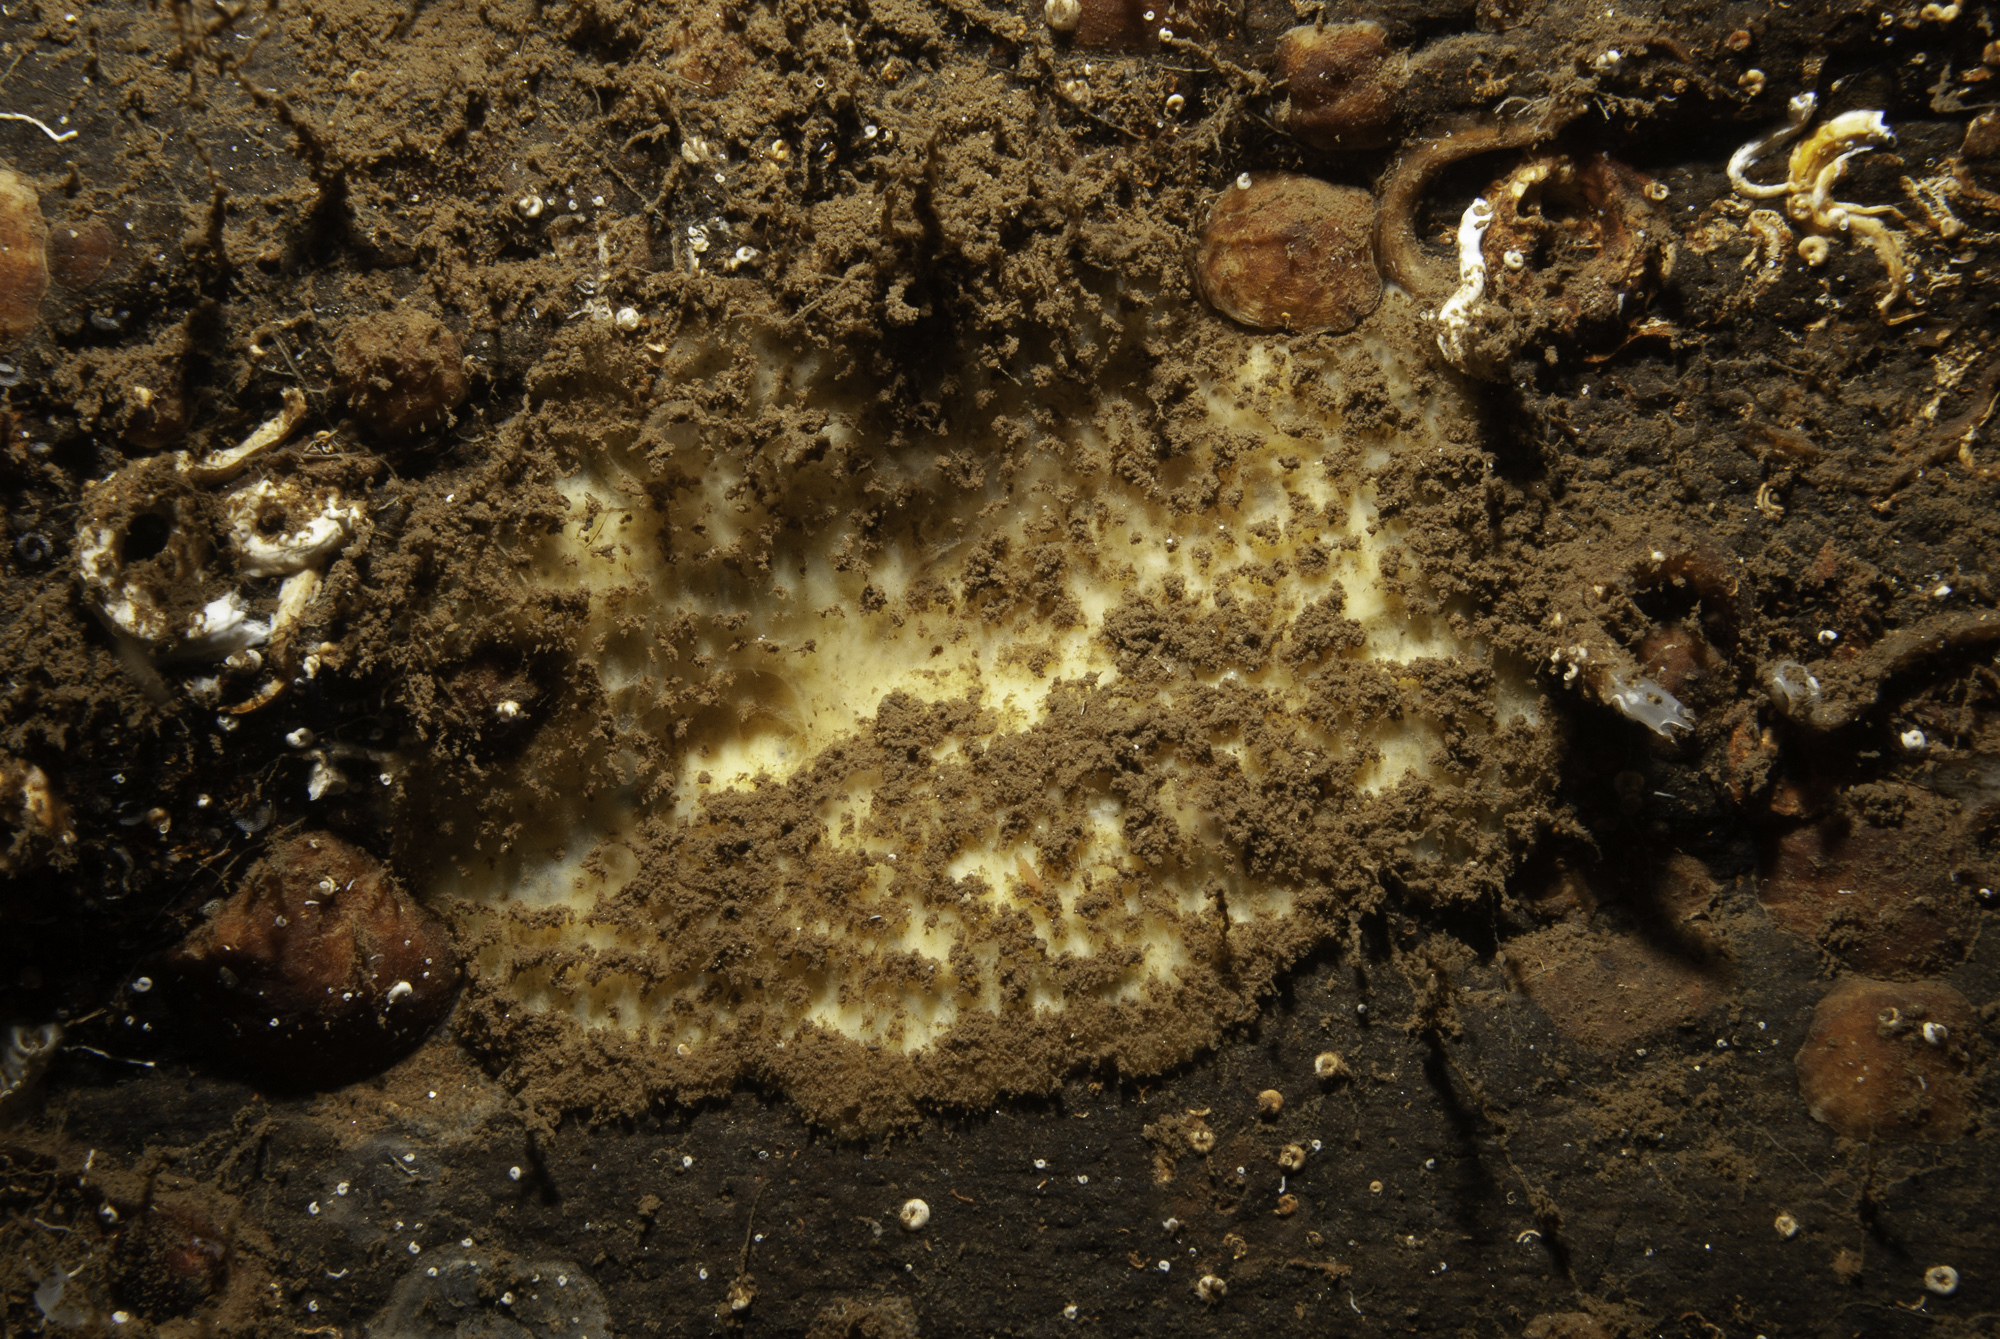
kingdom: Animalia
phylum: Porifera
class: Demospongiae
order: Axinellida
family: Stelligeridae
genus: Paratimea
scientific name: Paratimea loennbergi
